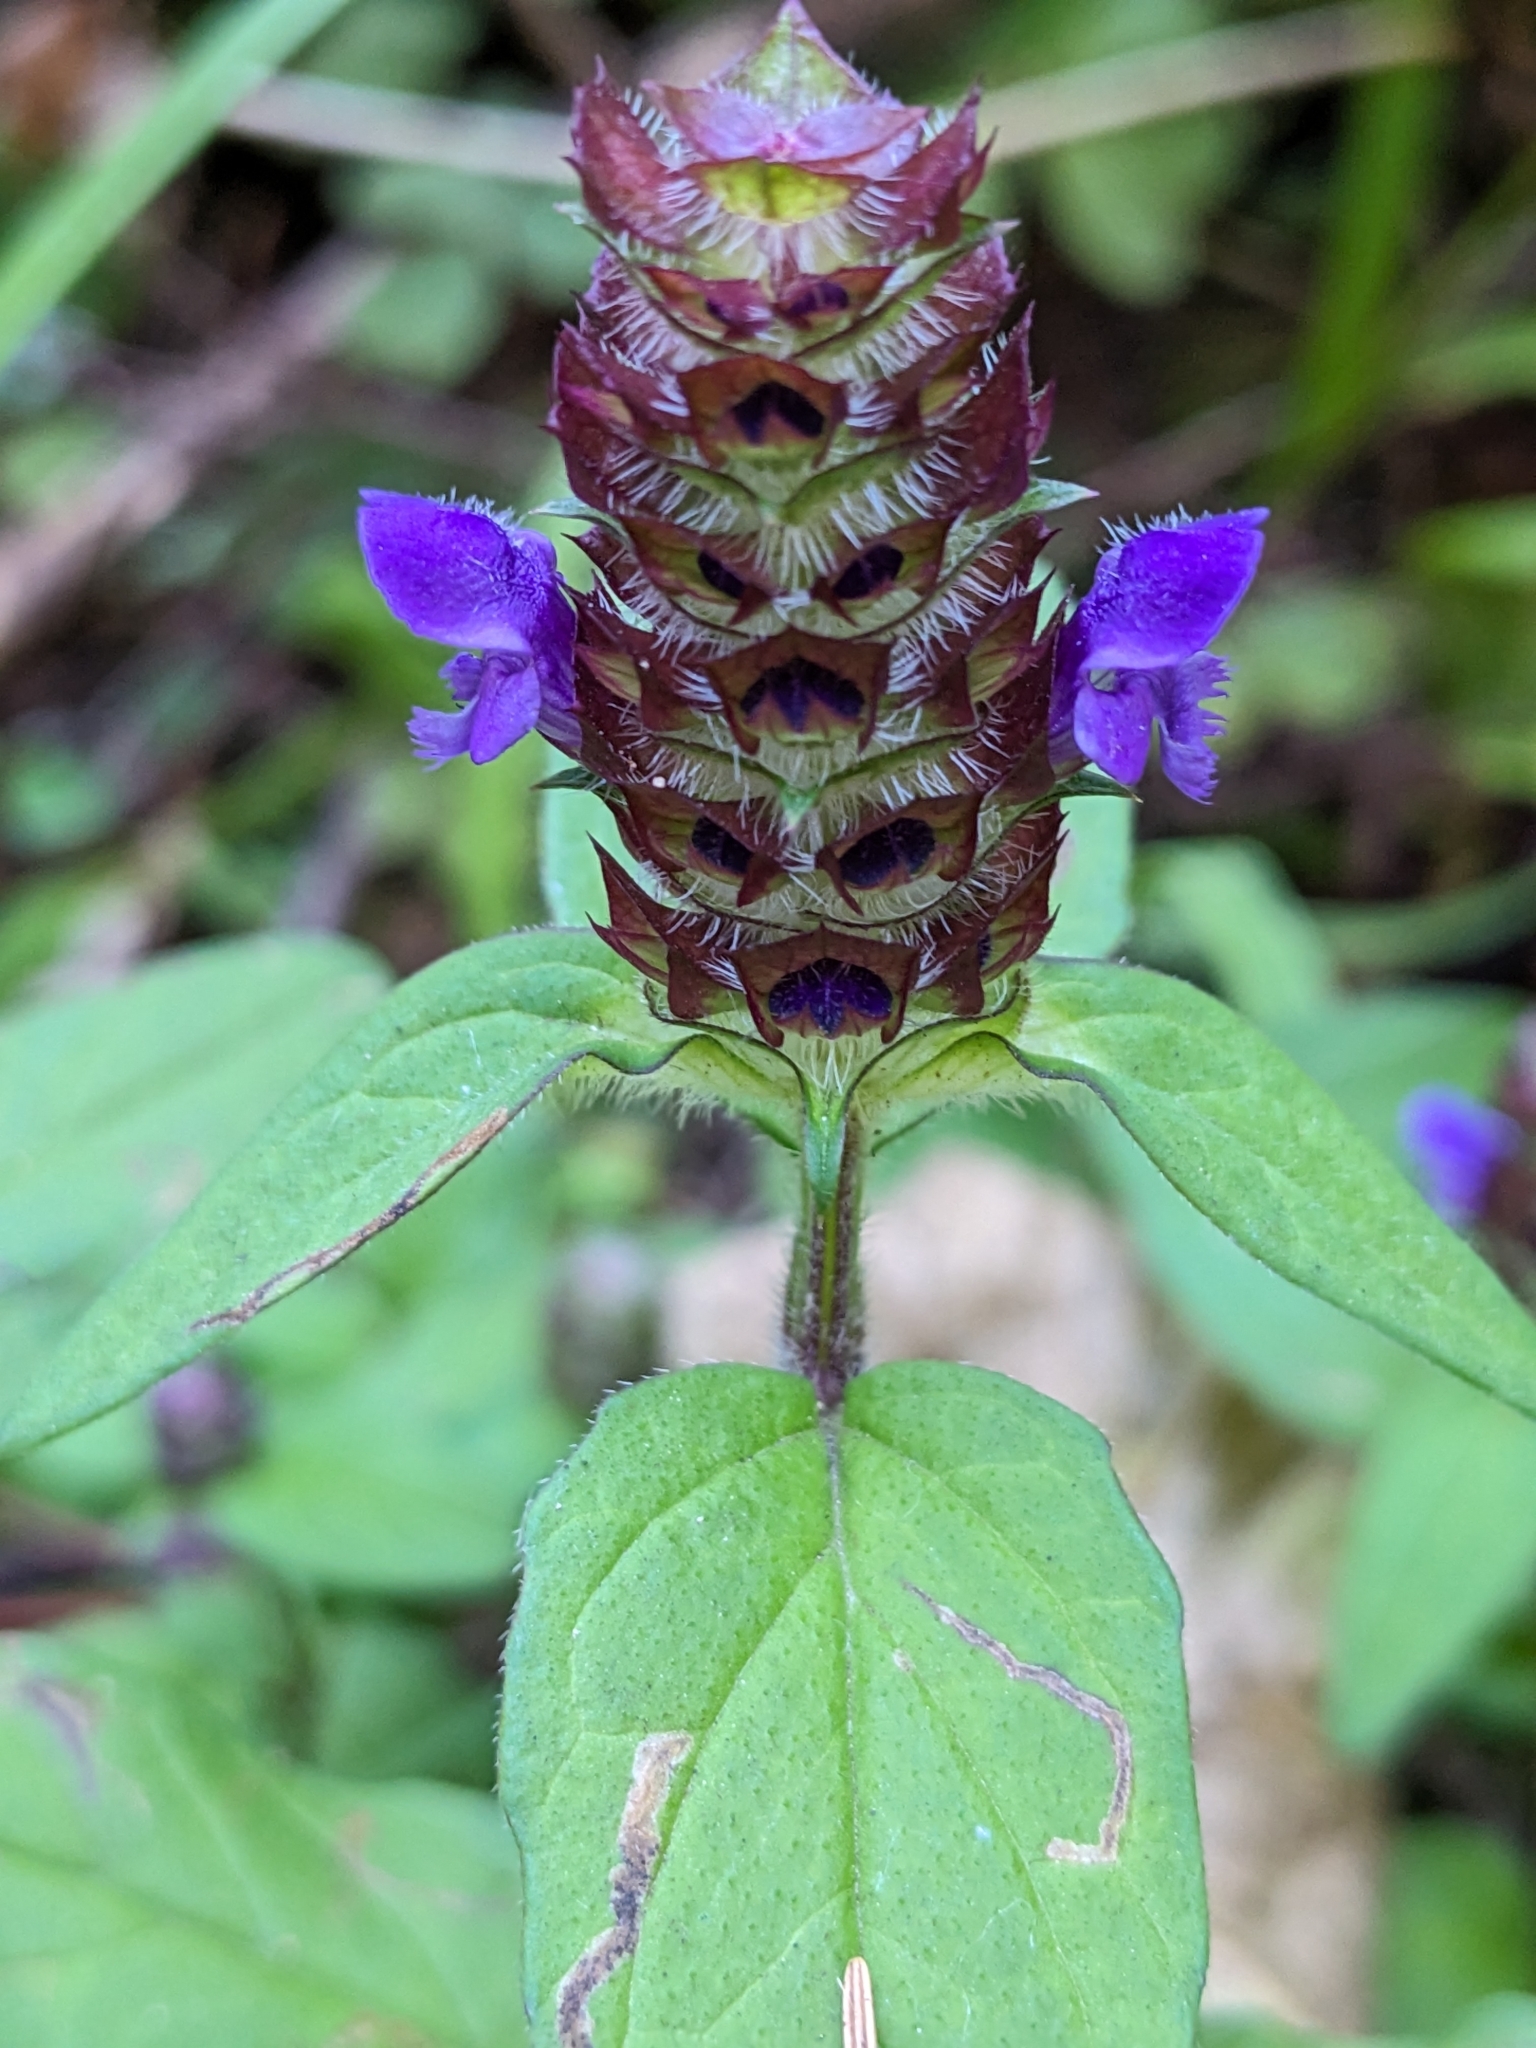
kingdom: Plantae
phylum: Tracheophyta
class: Magnoliopsida
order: Lamiales
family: Lamiaceae
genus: Prunella
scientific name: Prunella vulgaris
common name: Heal-all
